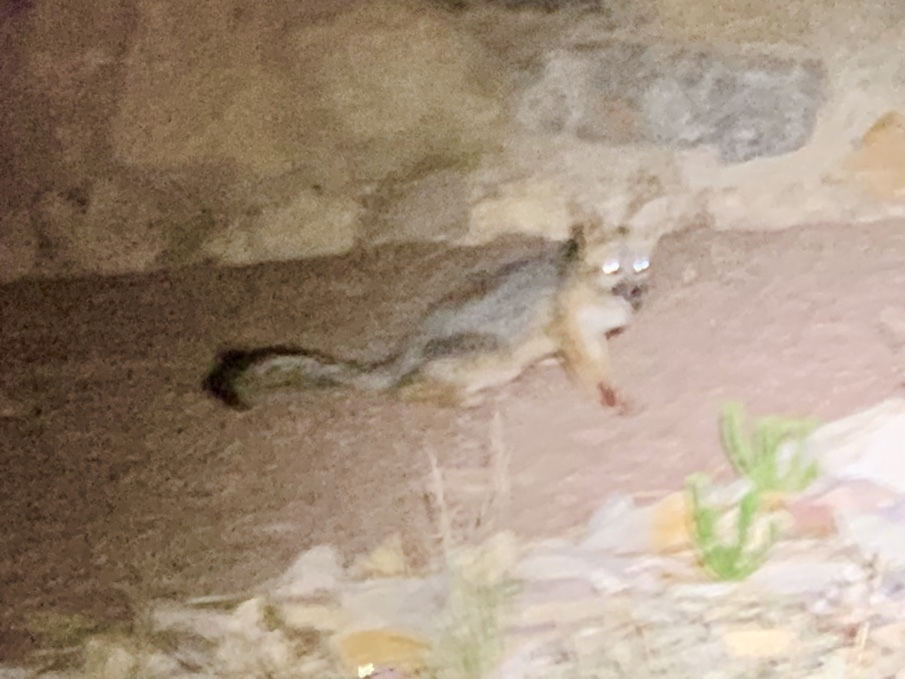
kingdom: Animalia
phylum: Chordata
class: Mammalia
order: Carnivora
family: Canidae
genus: Urocyon
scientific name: Urocyon cinereoargenteus
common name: Gray fox
